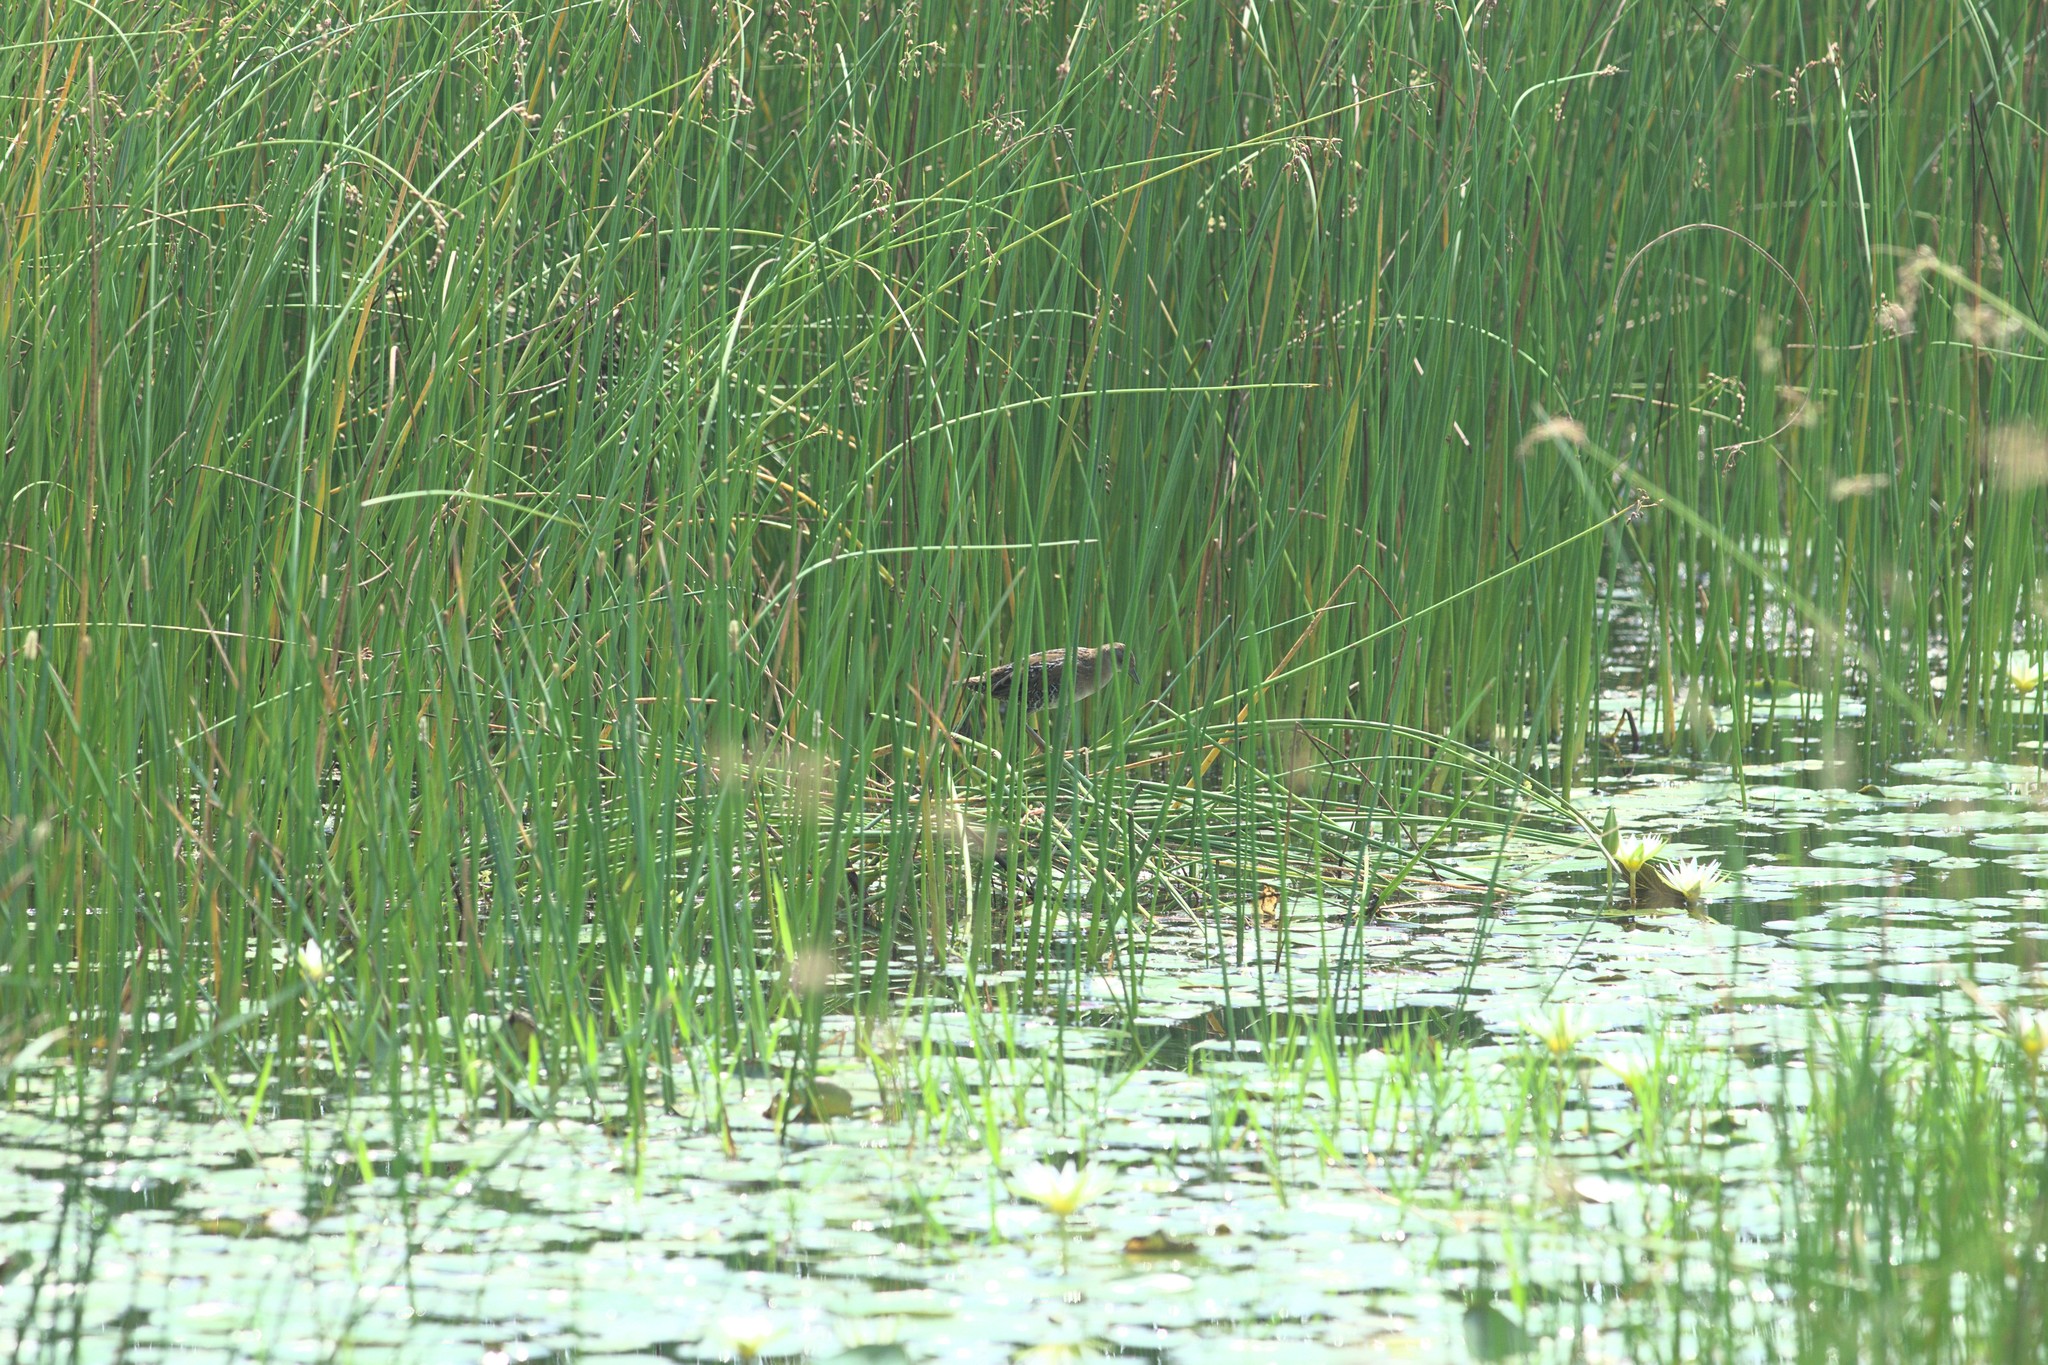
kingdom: Animalia
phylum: Chordata
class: Aves
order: Gruiformes
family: Rallidae
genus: Porzana
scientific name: Porzana pusilla
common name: Baillon's crake
